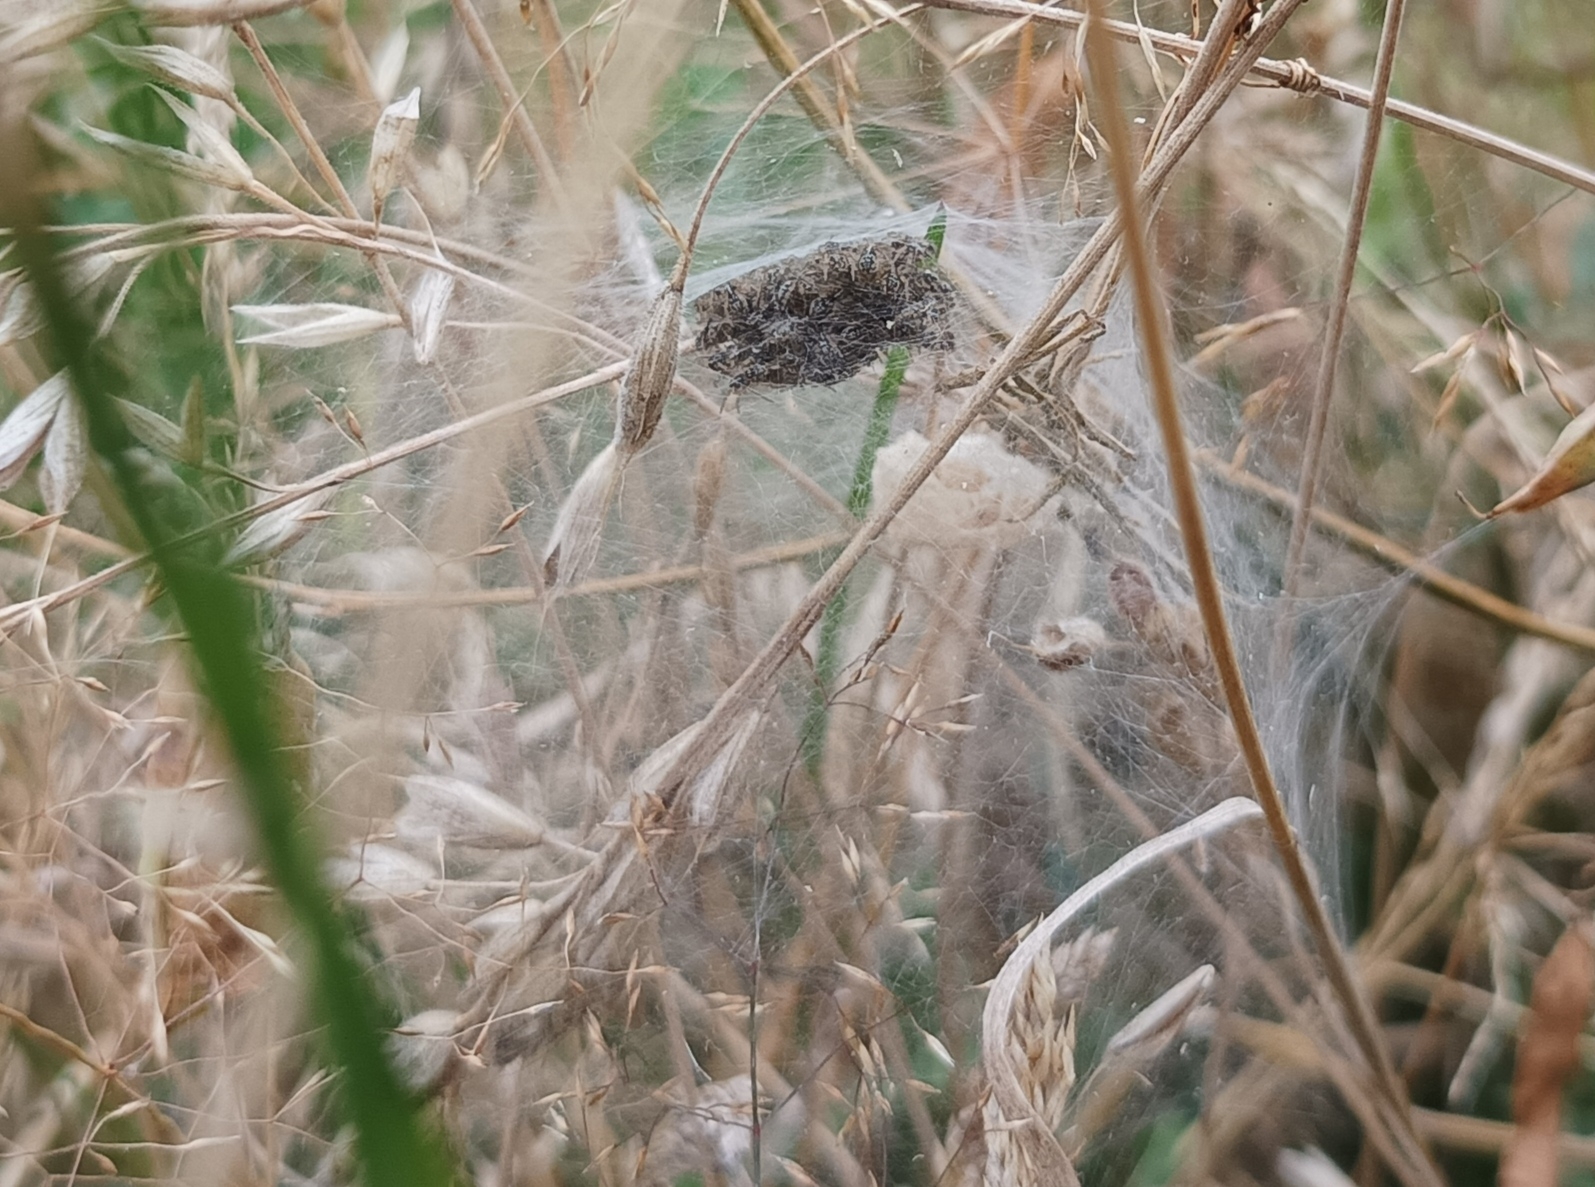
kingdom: Animalia
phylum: Arthropoda
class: Arachnida
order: Araneae
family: Pisauridae
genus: Pisaura
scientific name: Pisaura mirabilis
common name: Tent spider
